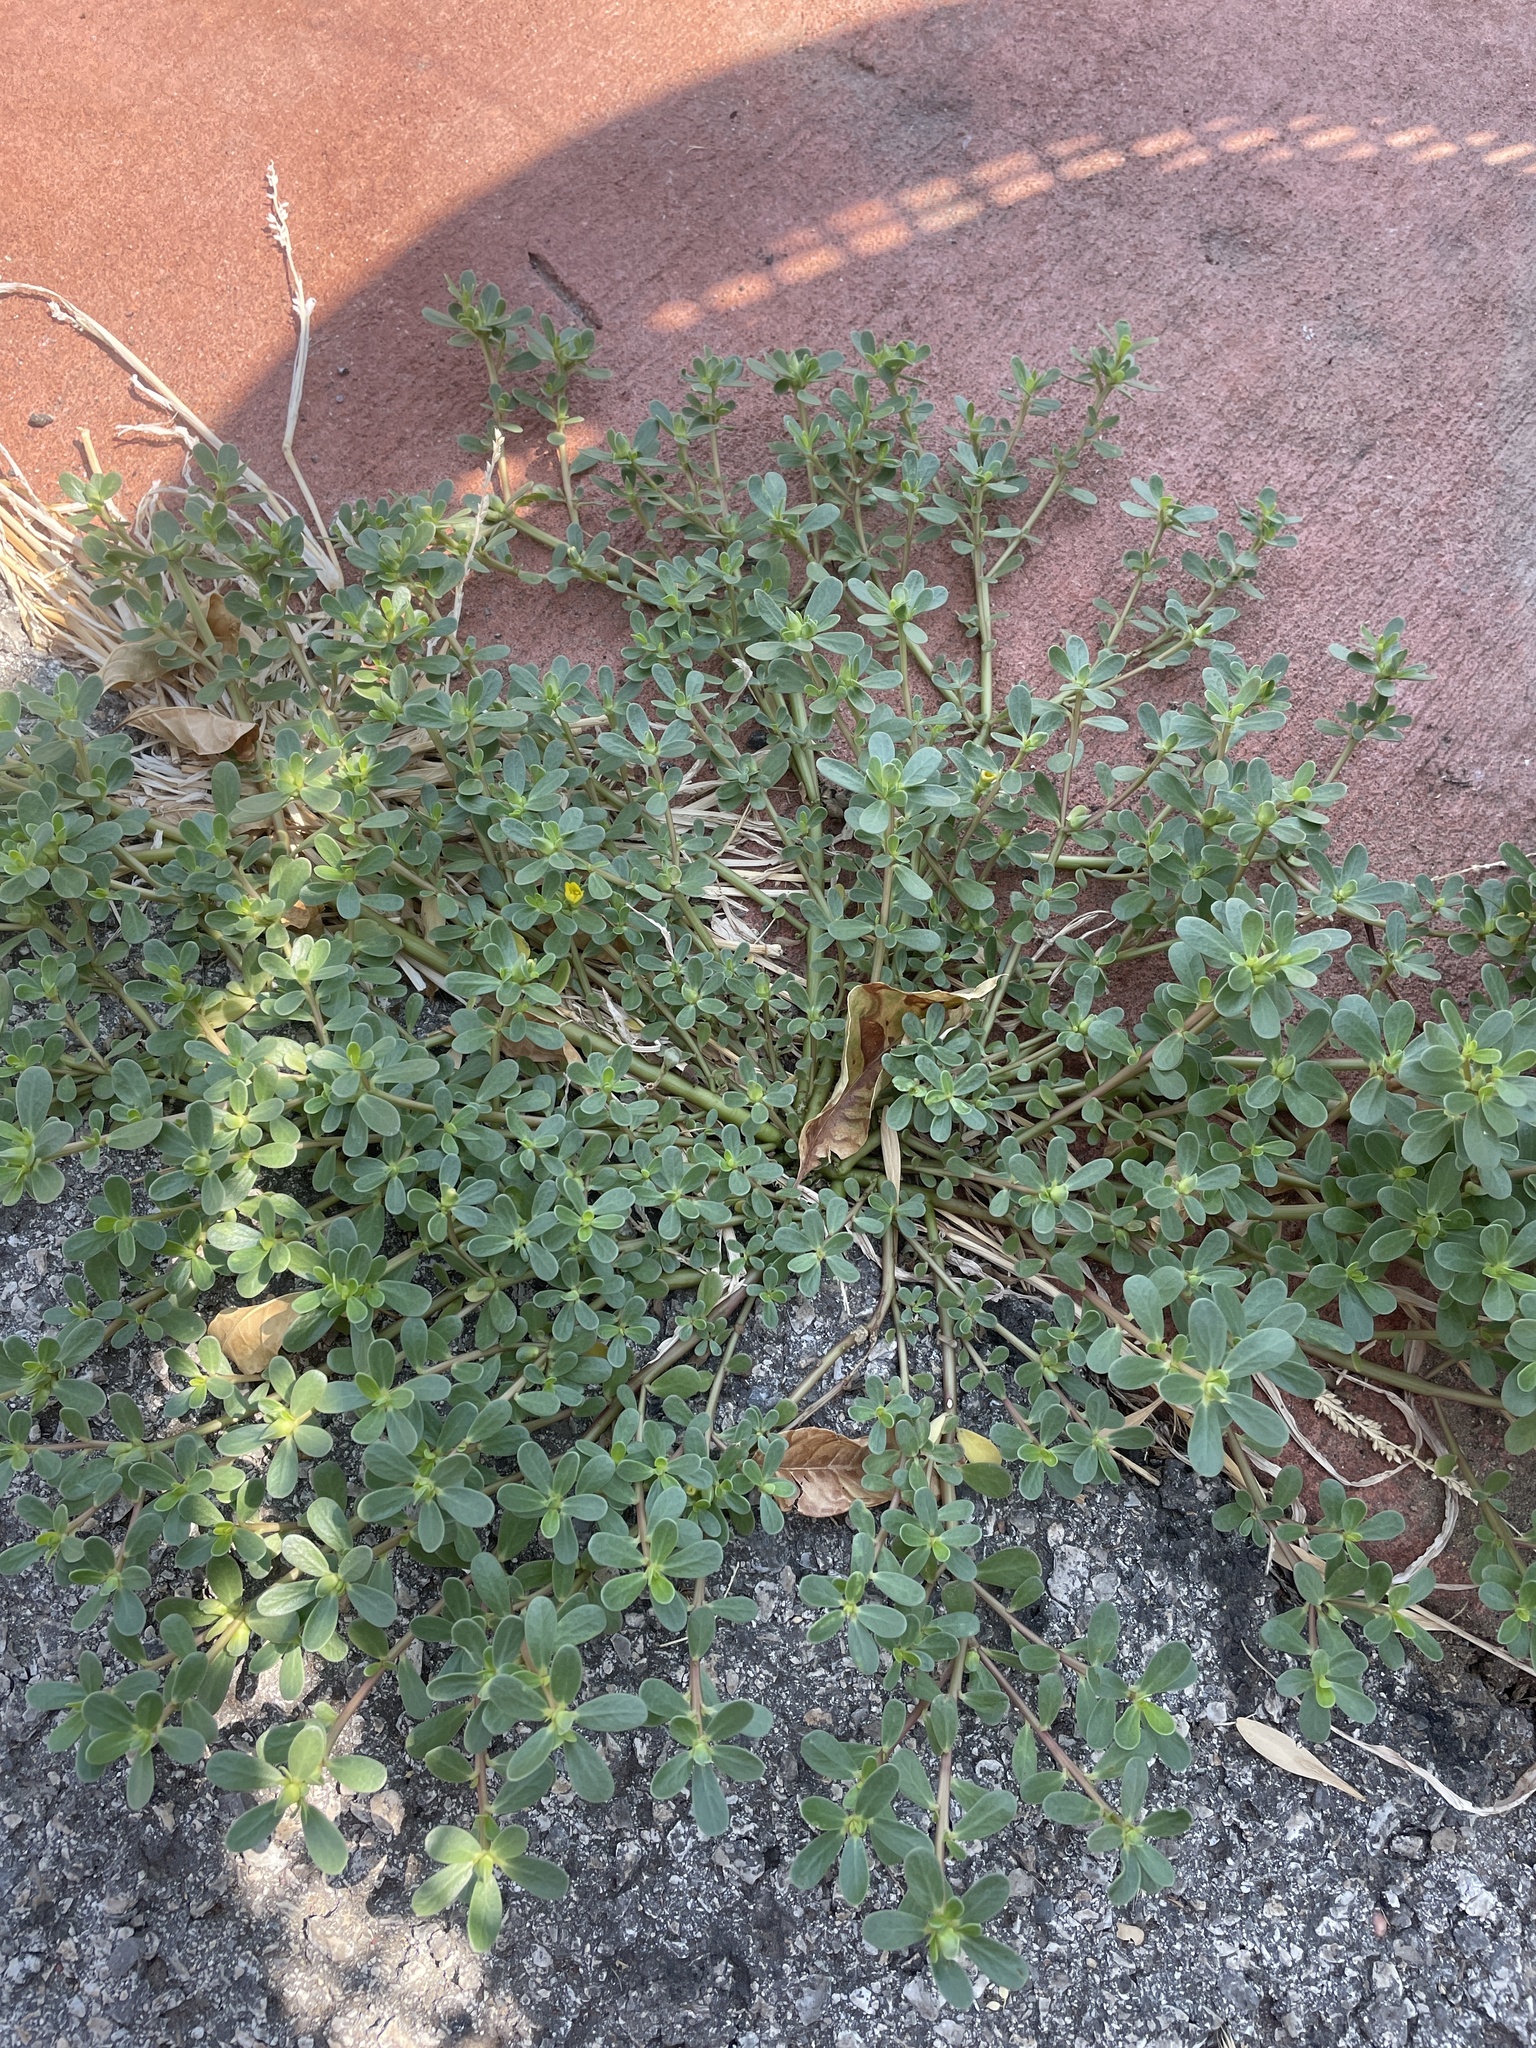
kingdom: Plantae
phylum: Tracheophyta
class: Magnoliopsida
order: Caryophyllales
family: Portulacaceae
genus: Portulaca
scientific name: Portulaca oleracea
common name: Common purslane
